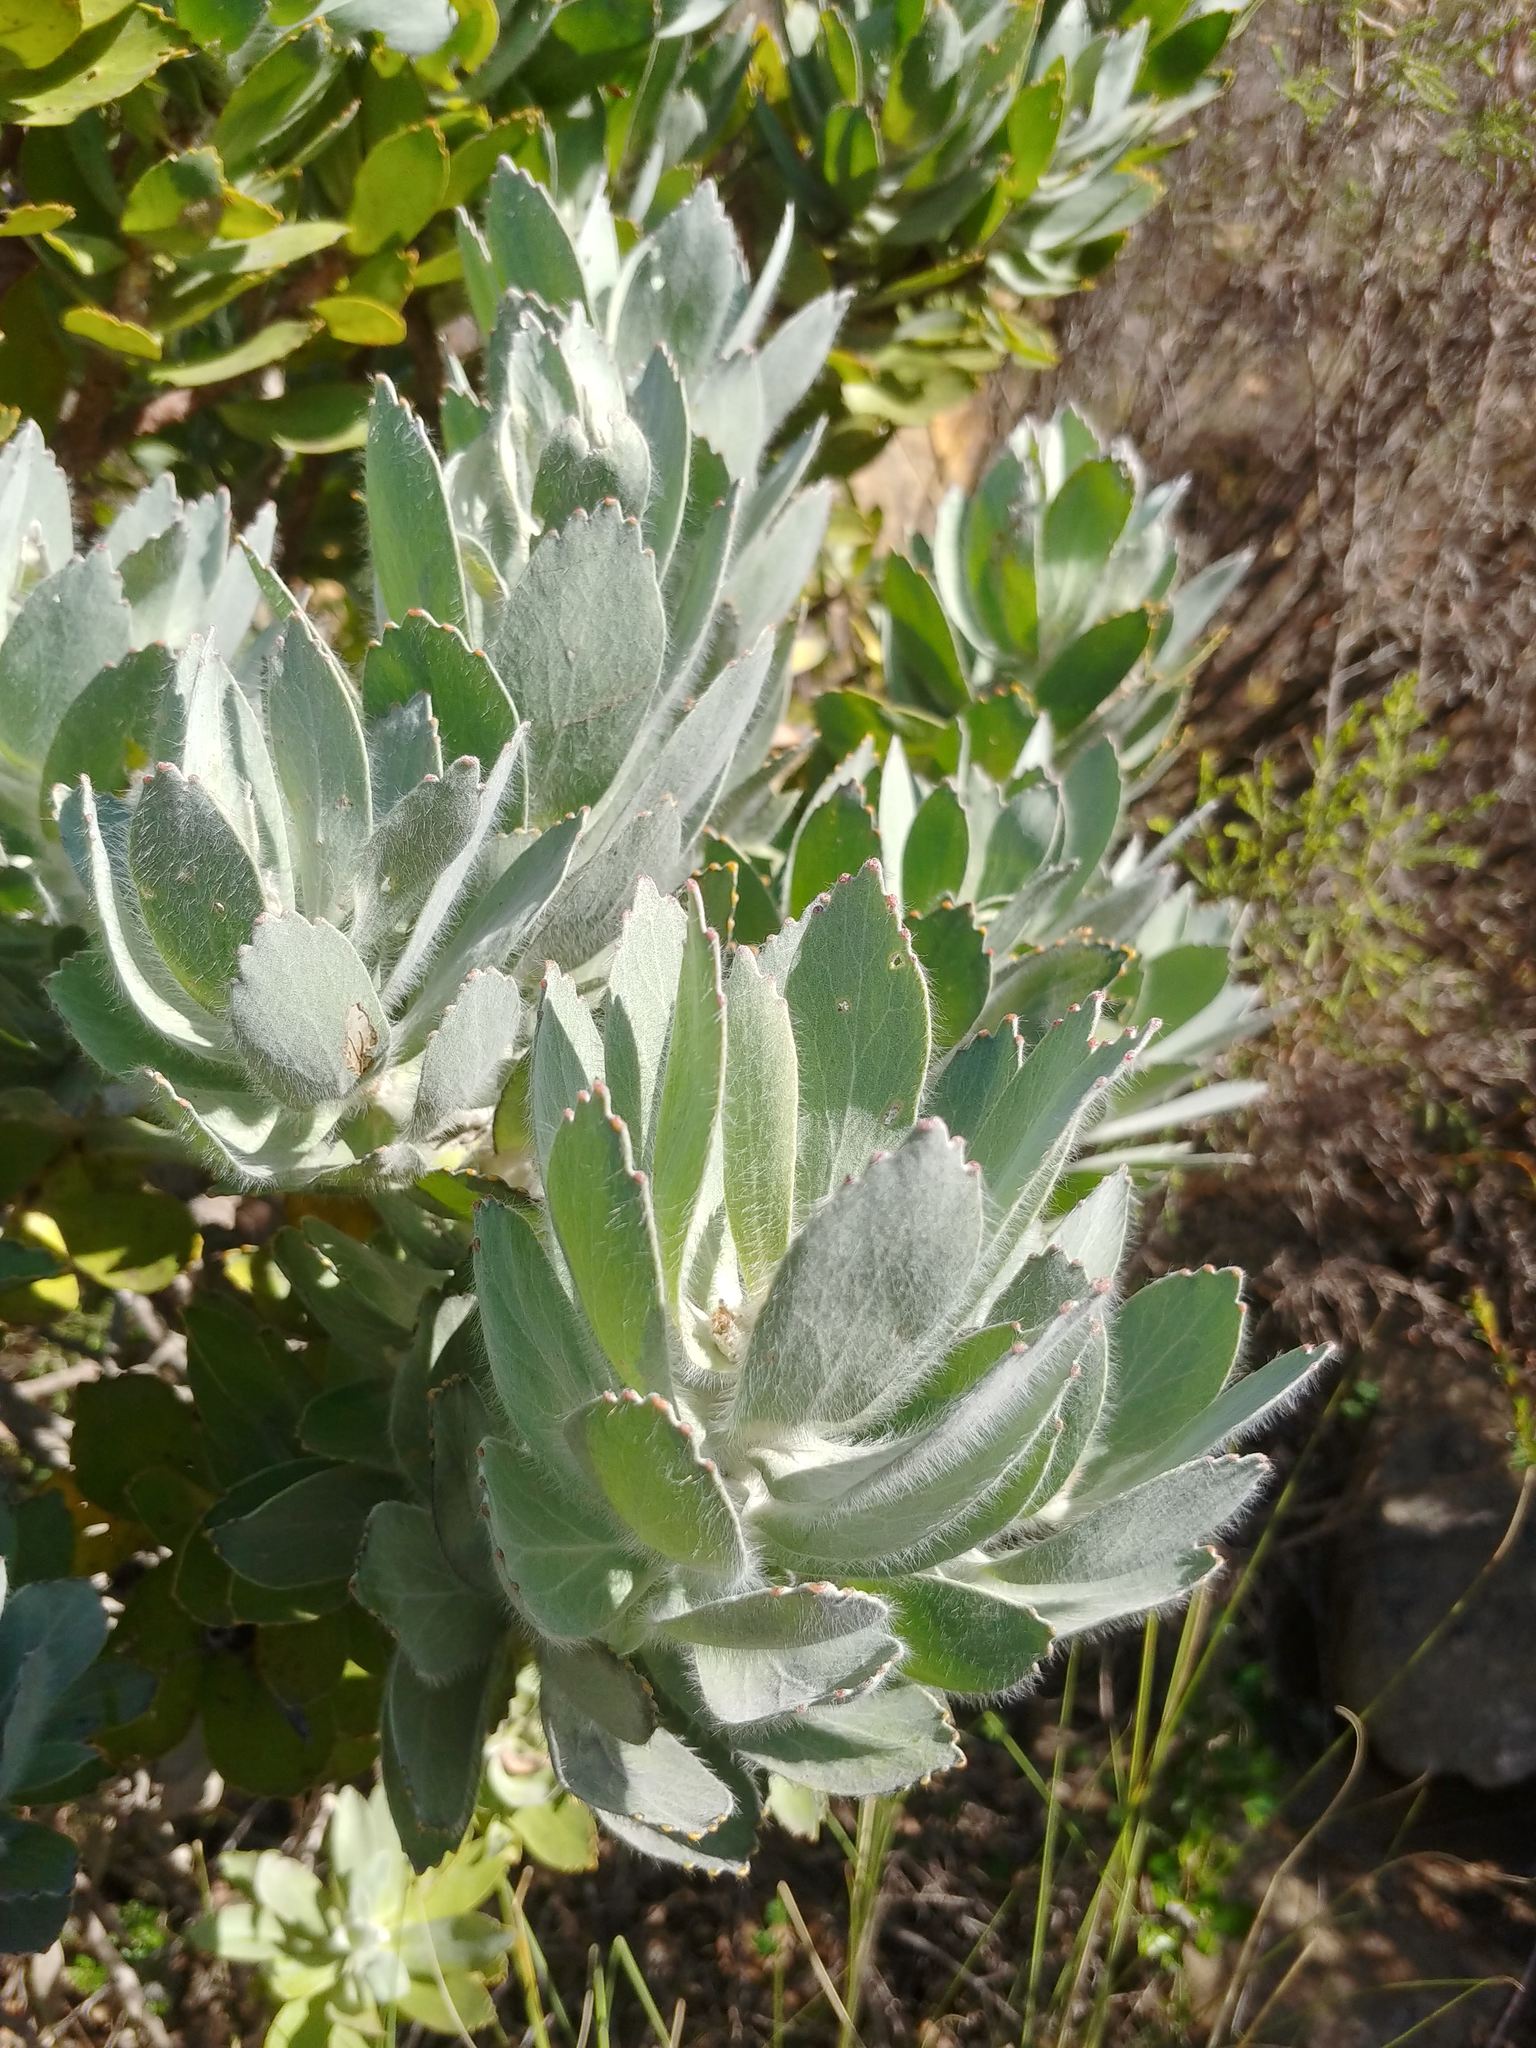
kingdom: Plantae
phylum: Tracheophyta
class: Magnoliopsida
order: Proteales
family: Proteaceae
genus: Leucospermum
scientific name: Leucospermum conocarpodendron
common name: Tree pincushion
